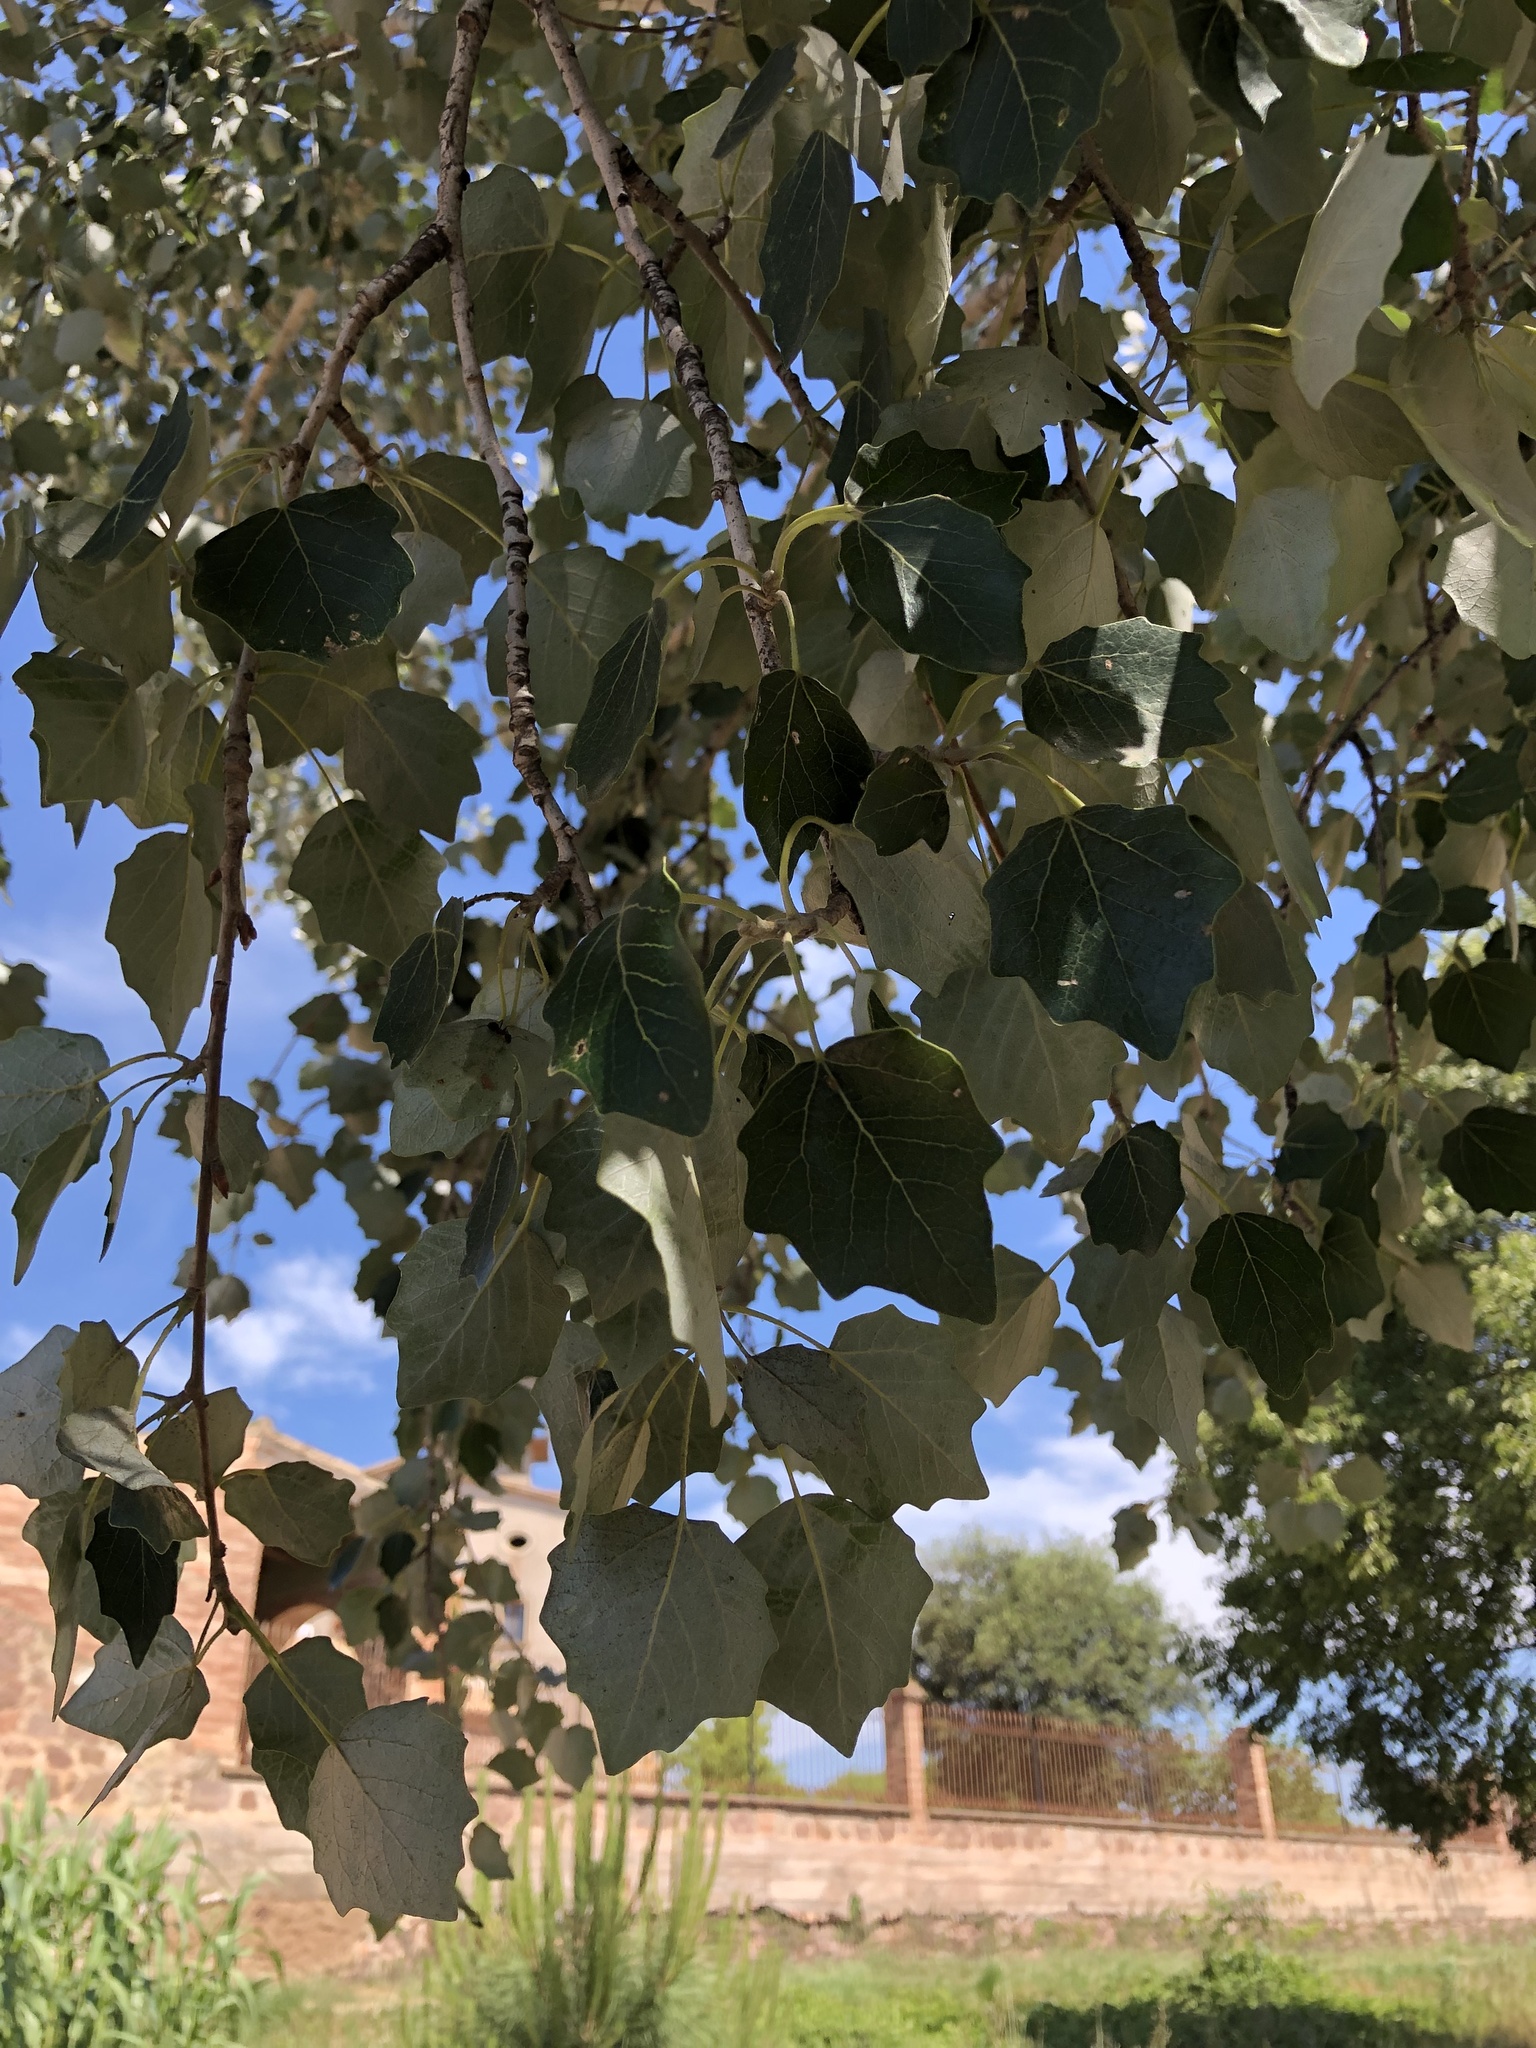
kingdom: Plantae
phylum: Tracheophyta
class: Magnoliopsida
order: Malpighiales
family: Salicaceae
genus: Populus
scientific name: Populus alba
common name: White poplar
